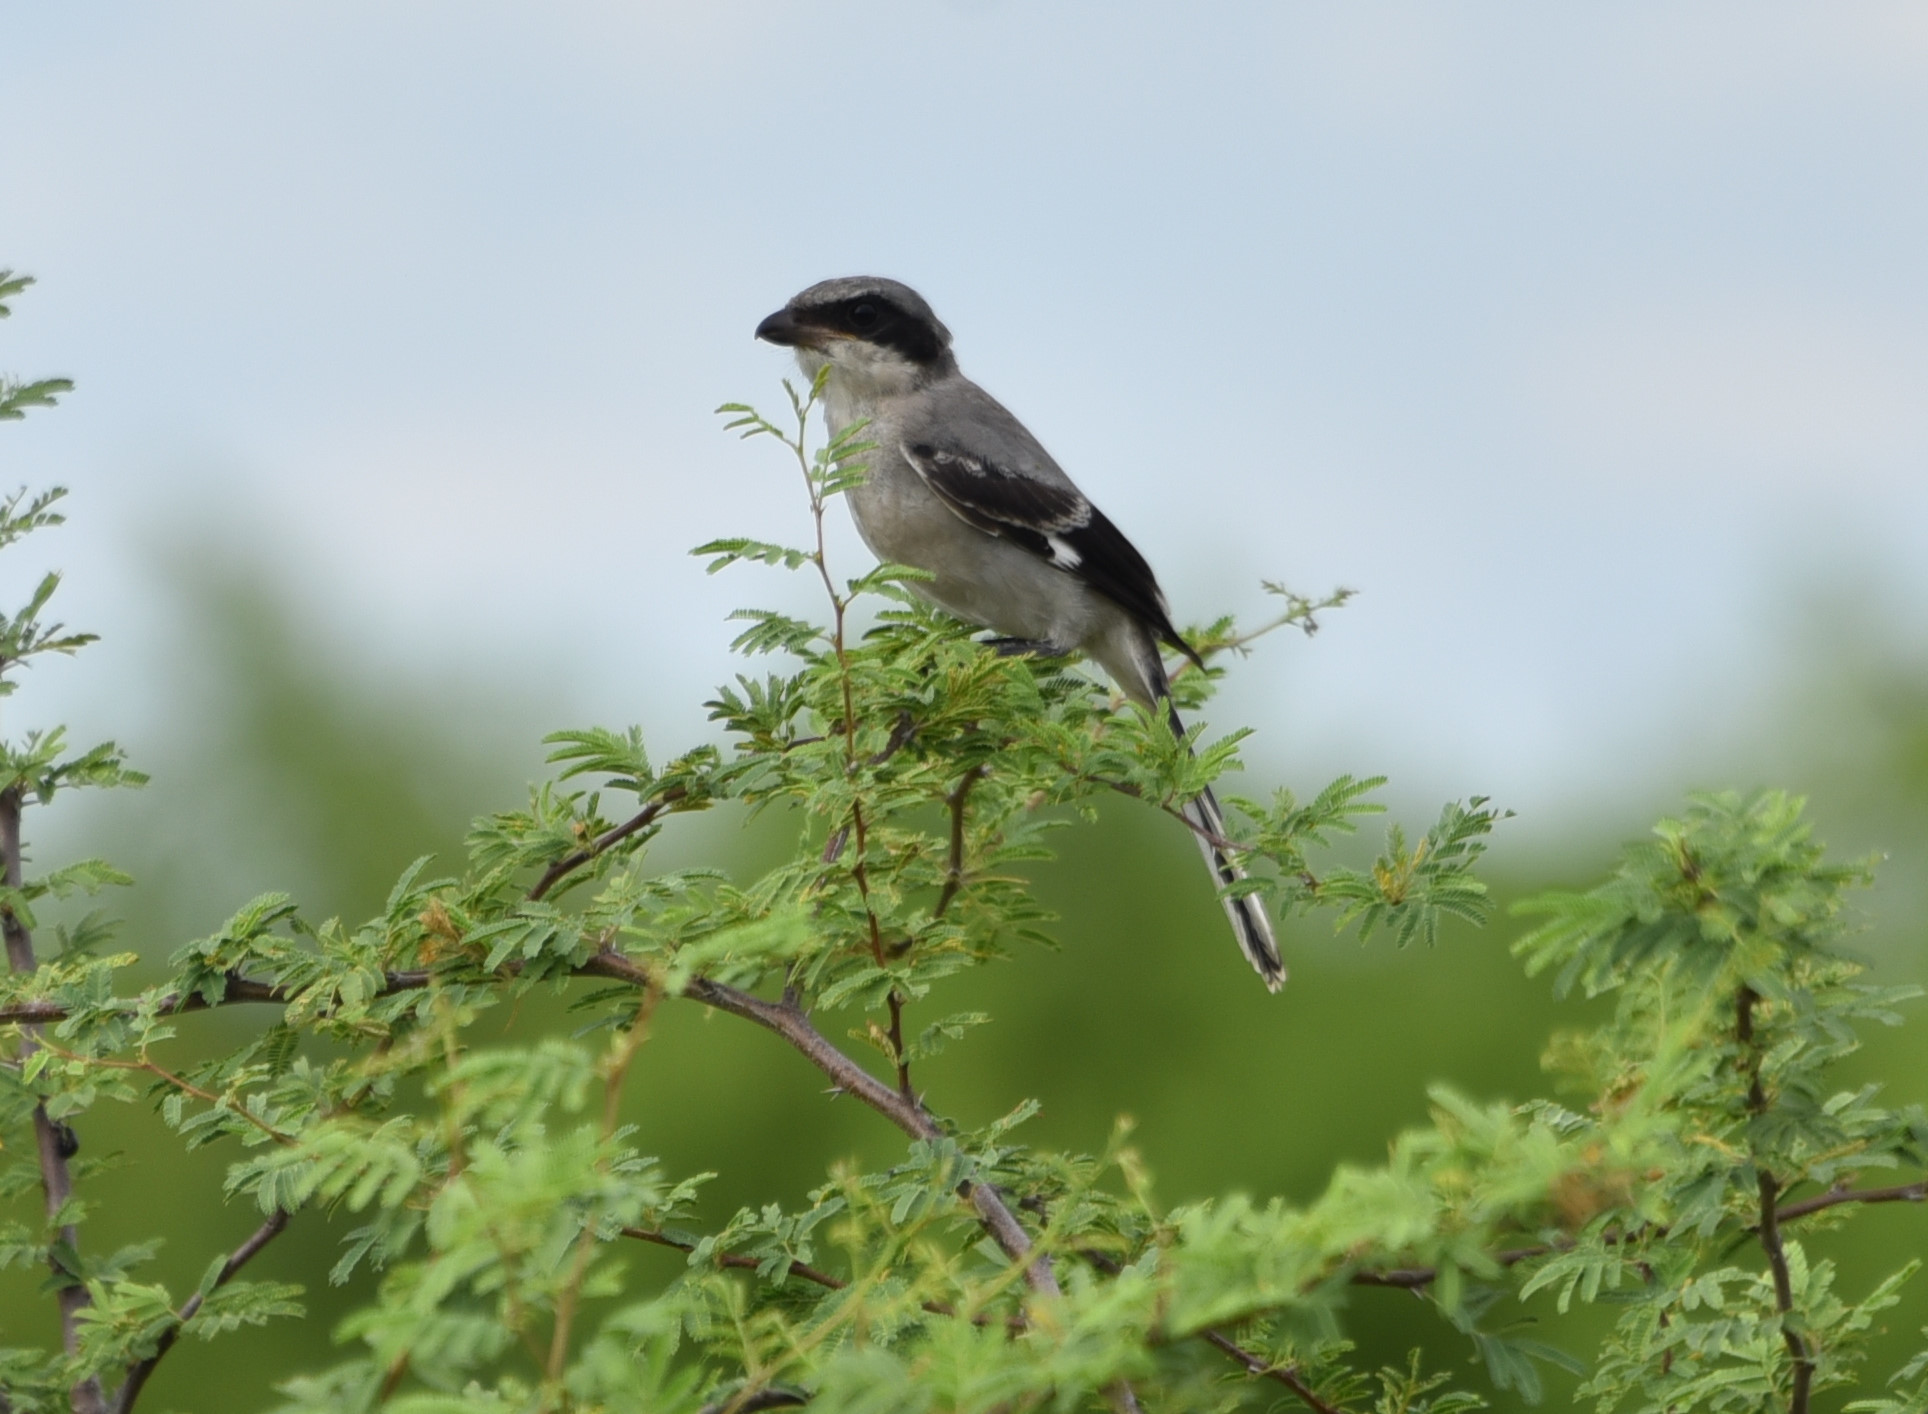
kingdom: Animalia
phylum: Chordata
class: Aves
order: Passeriformes
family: Laniidae
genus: Lanius
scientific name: Lanius ludovicianus
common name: Loggerhead shrike
